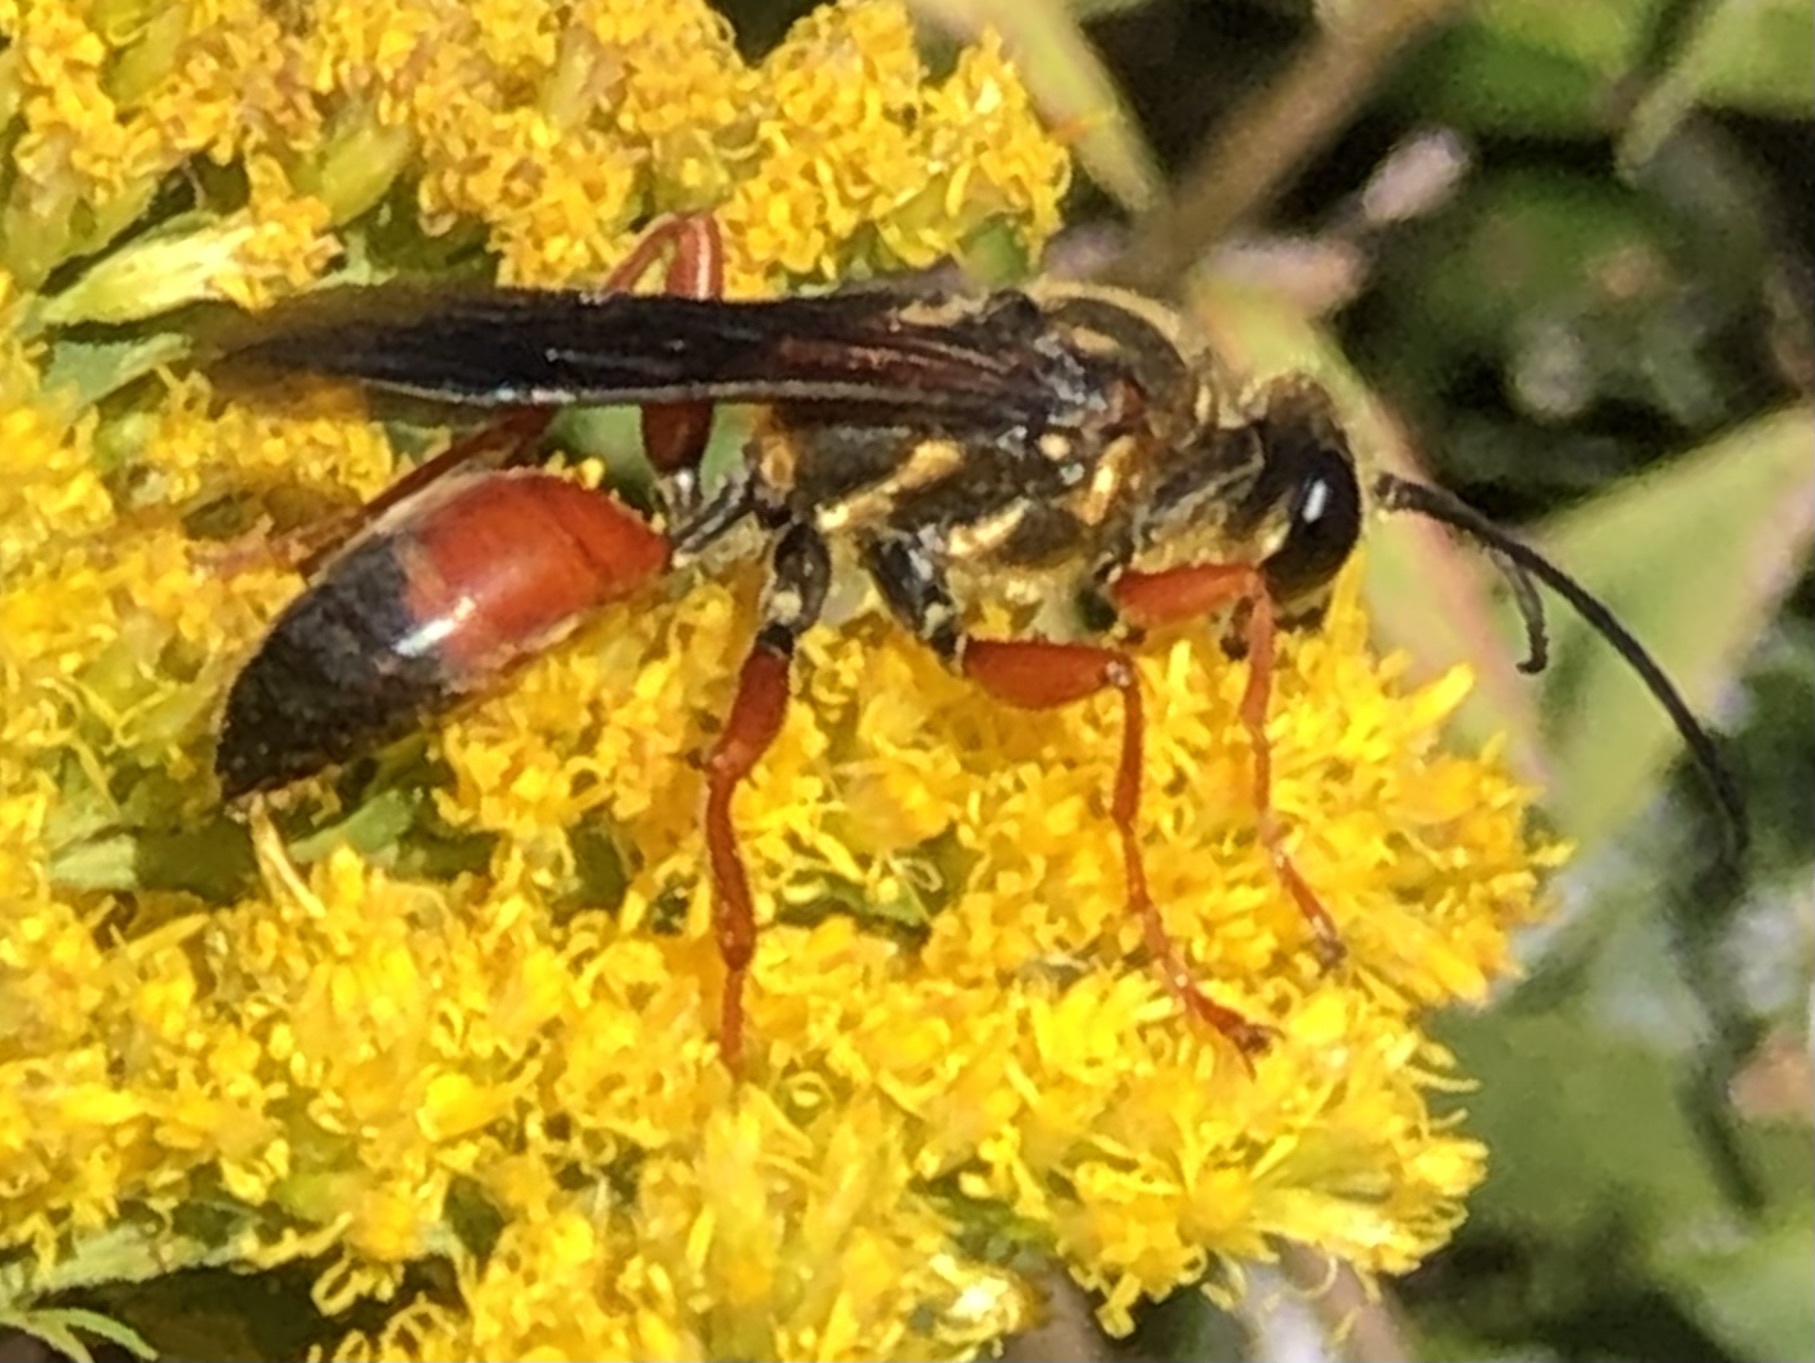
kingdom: Animalia
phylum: Arthropoda
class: Insecta
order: Hymenoptera
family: Sphecidae
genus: Sphex
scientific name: Sphex ichneumoneus
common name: Great golden digger wasp
